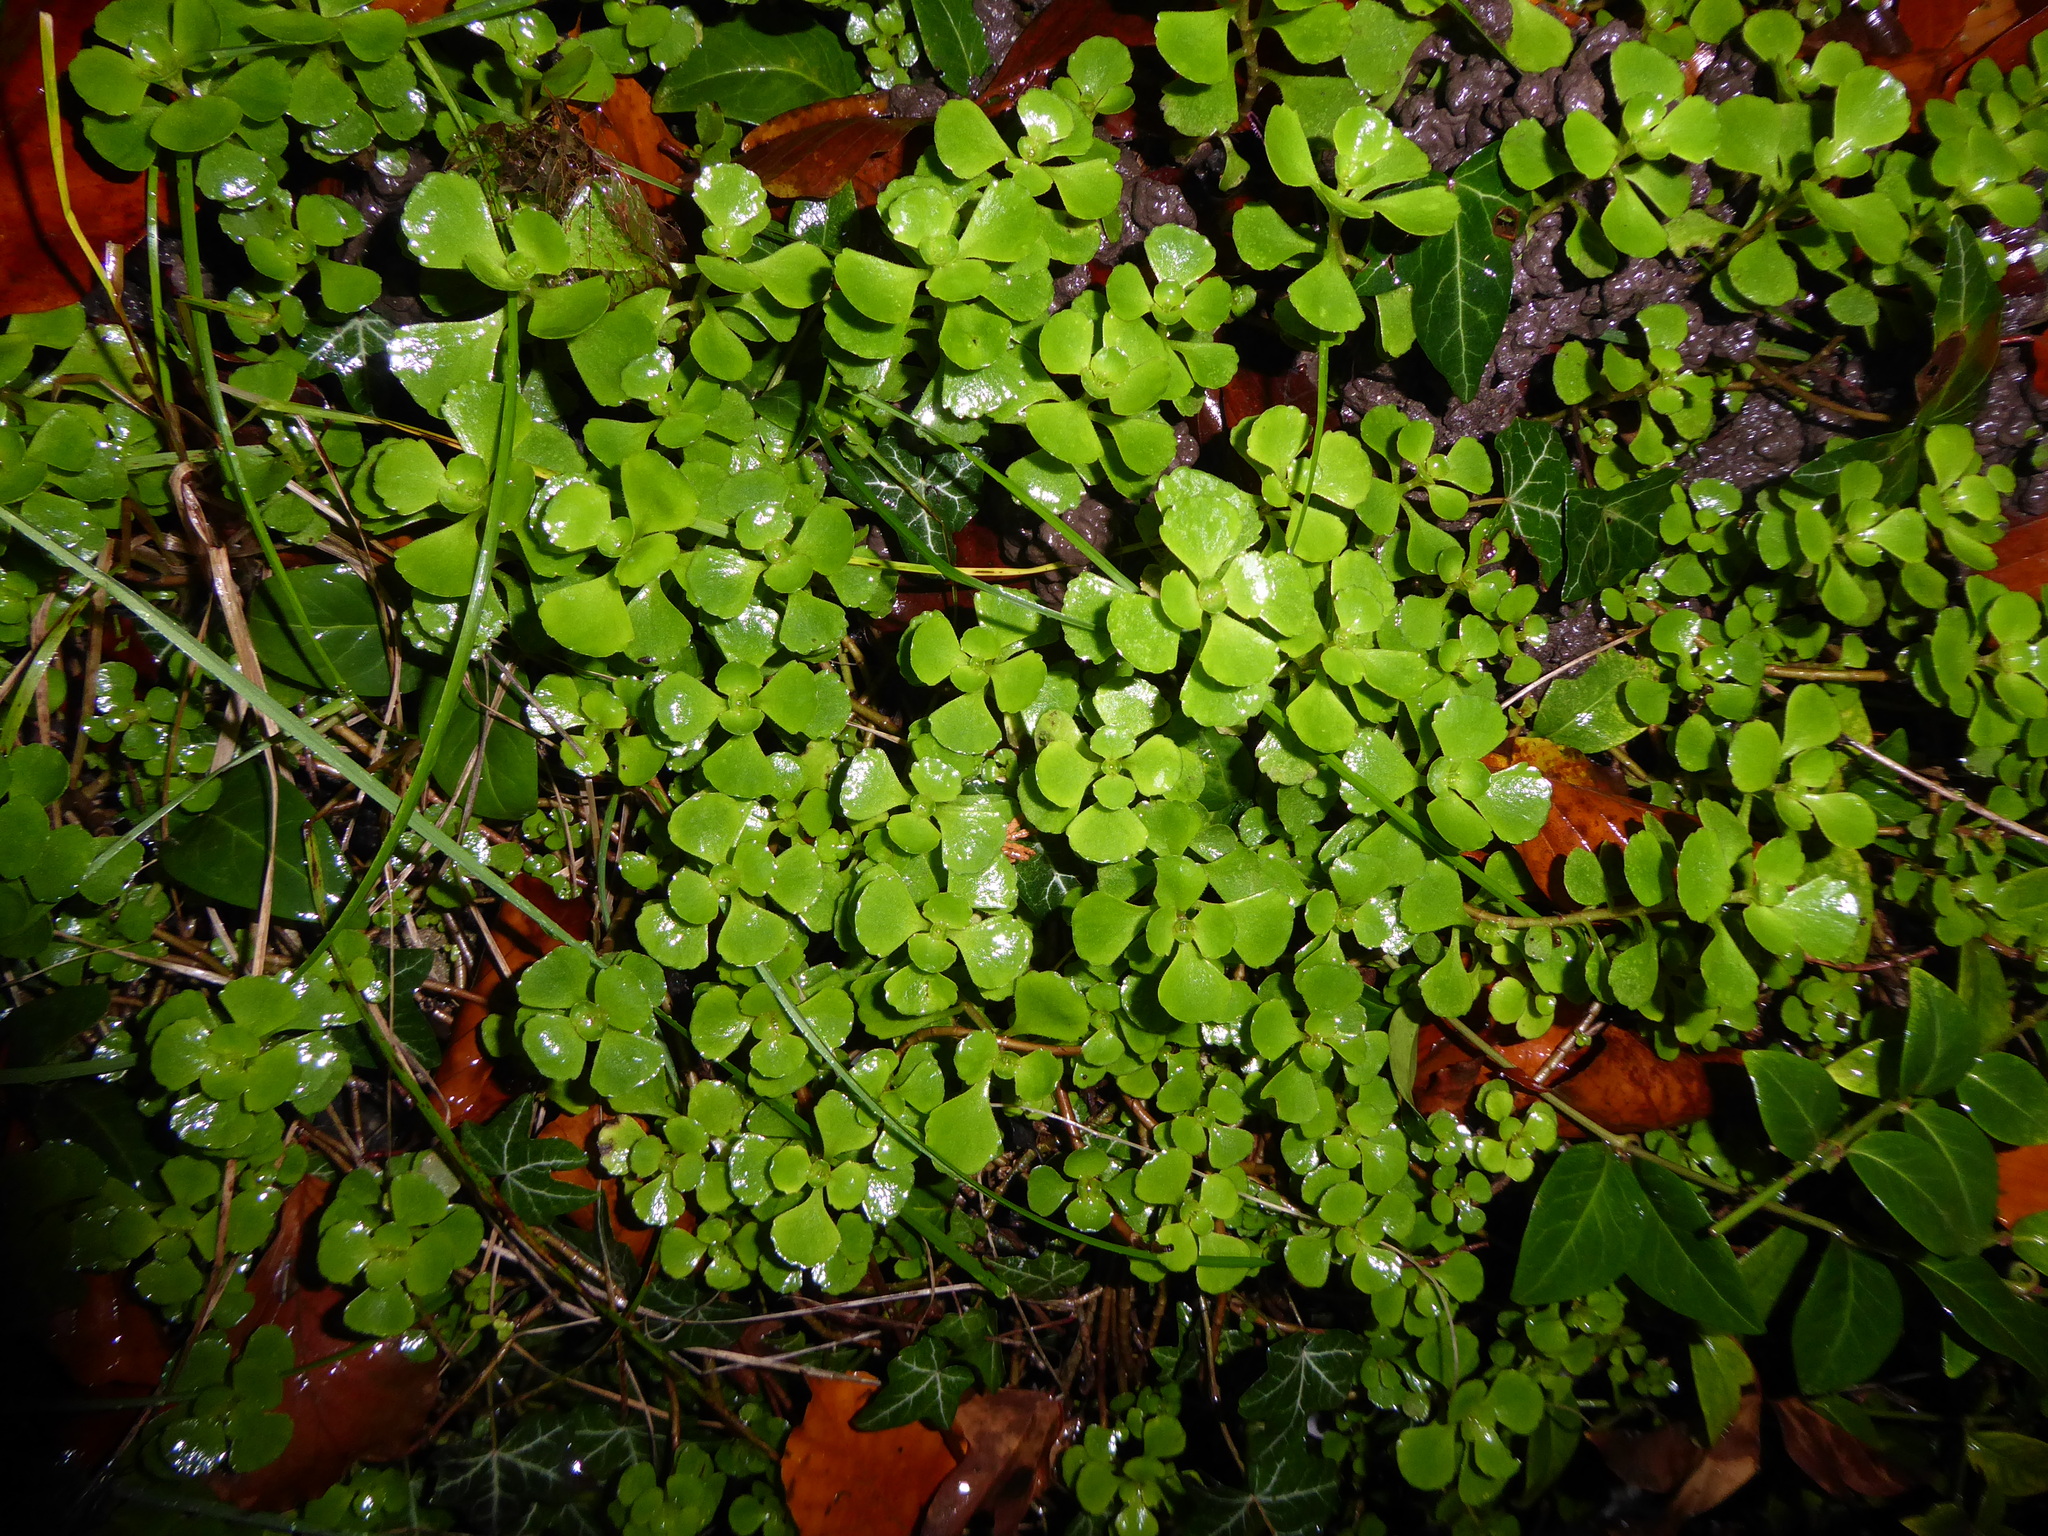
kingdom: Plantae
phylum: Tracheophyta
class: Magnoliopsida
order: Saxifragales
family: Saxifragaceae
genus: Chrysosplenium
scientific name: Chrysosplenium oppositifolium
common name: Opposite-leaved golden-saxifrage
